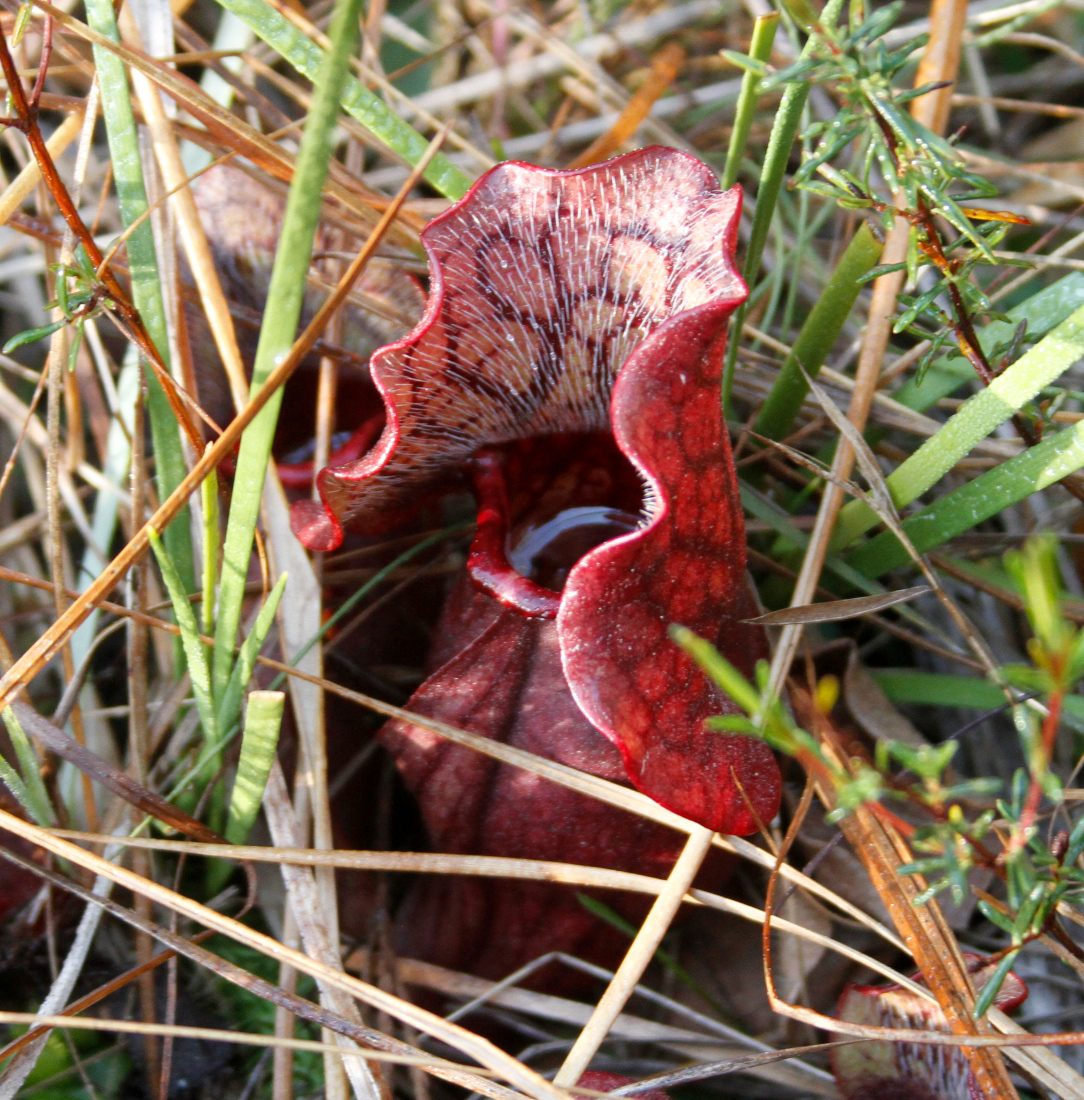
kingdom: Plantae
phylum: Tracheophyta
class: Magnoliopsida
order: Ericales
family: Sarraceniaceae
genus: Sarracenia
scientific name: Sarracenia purpurea
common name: Pitcherplant
